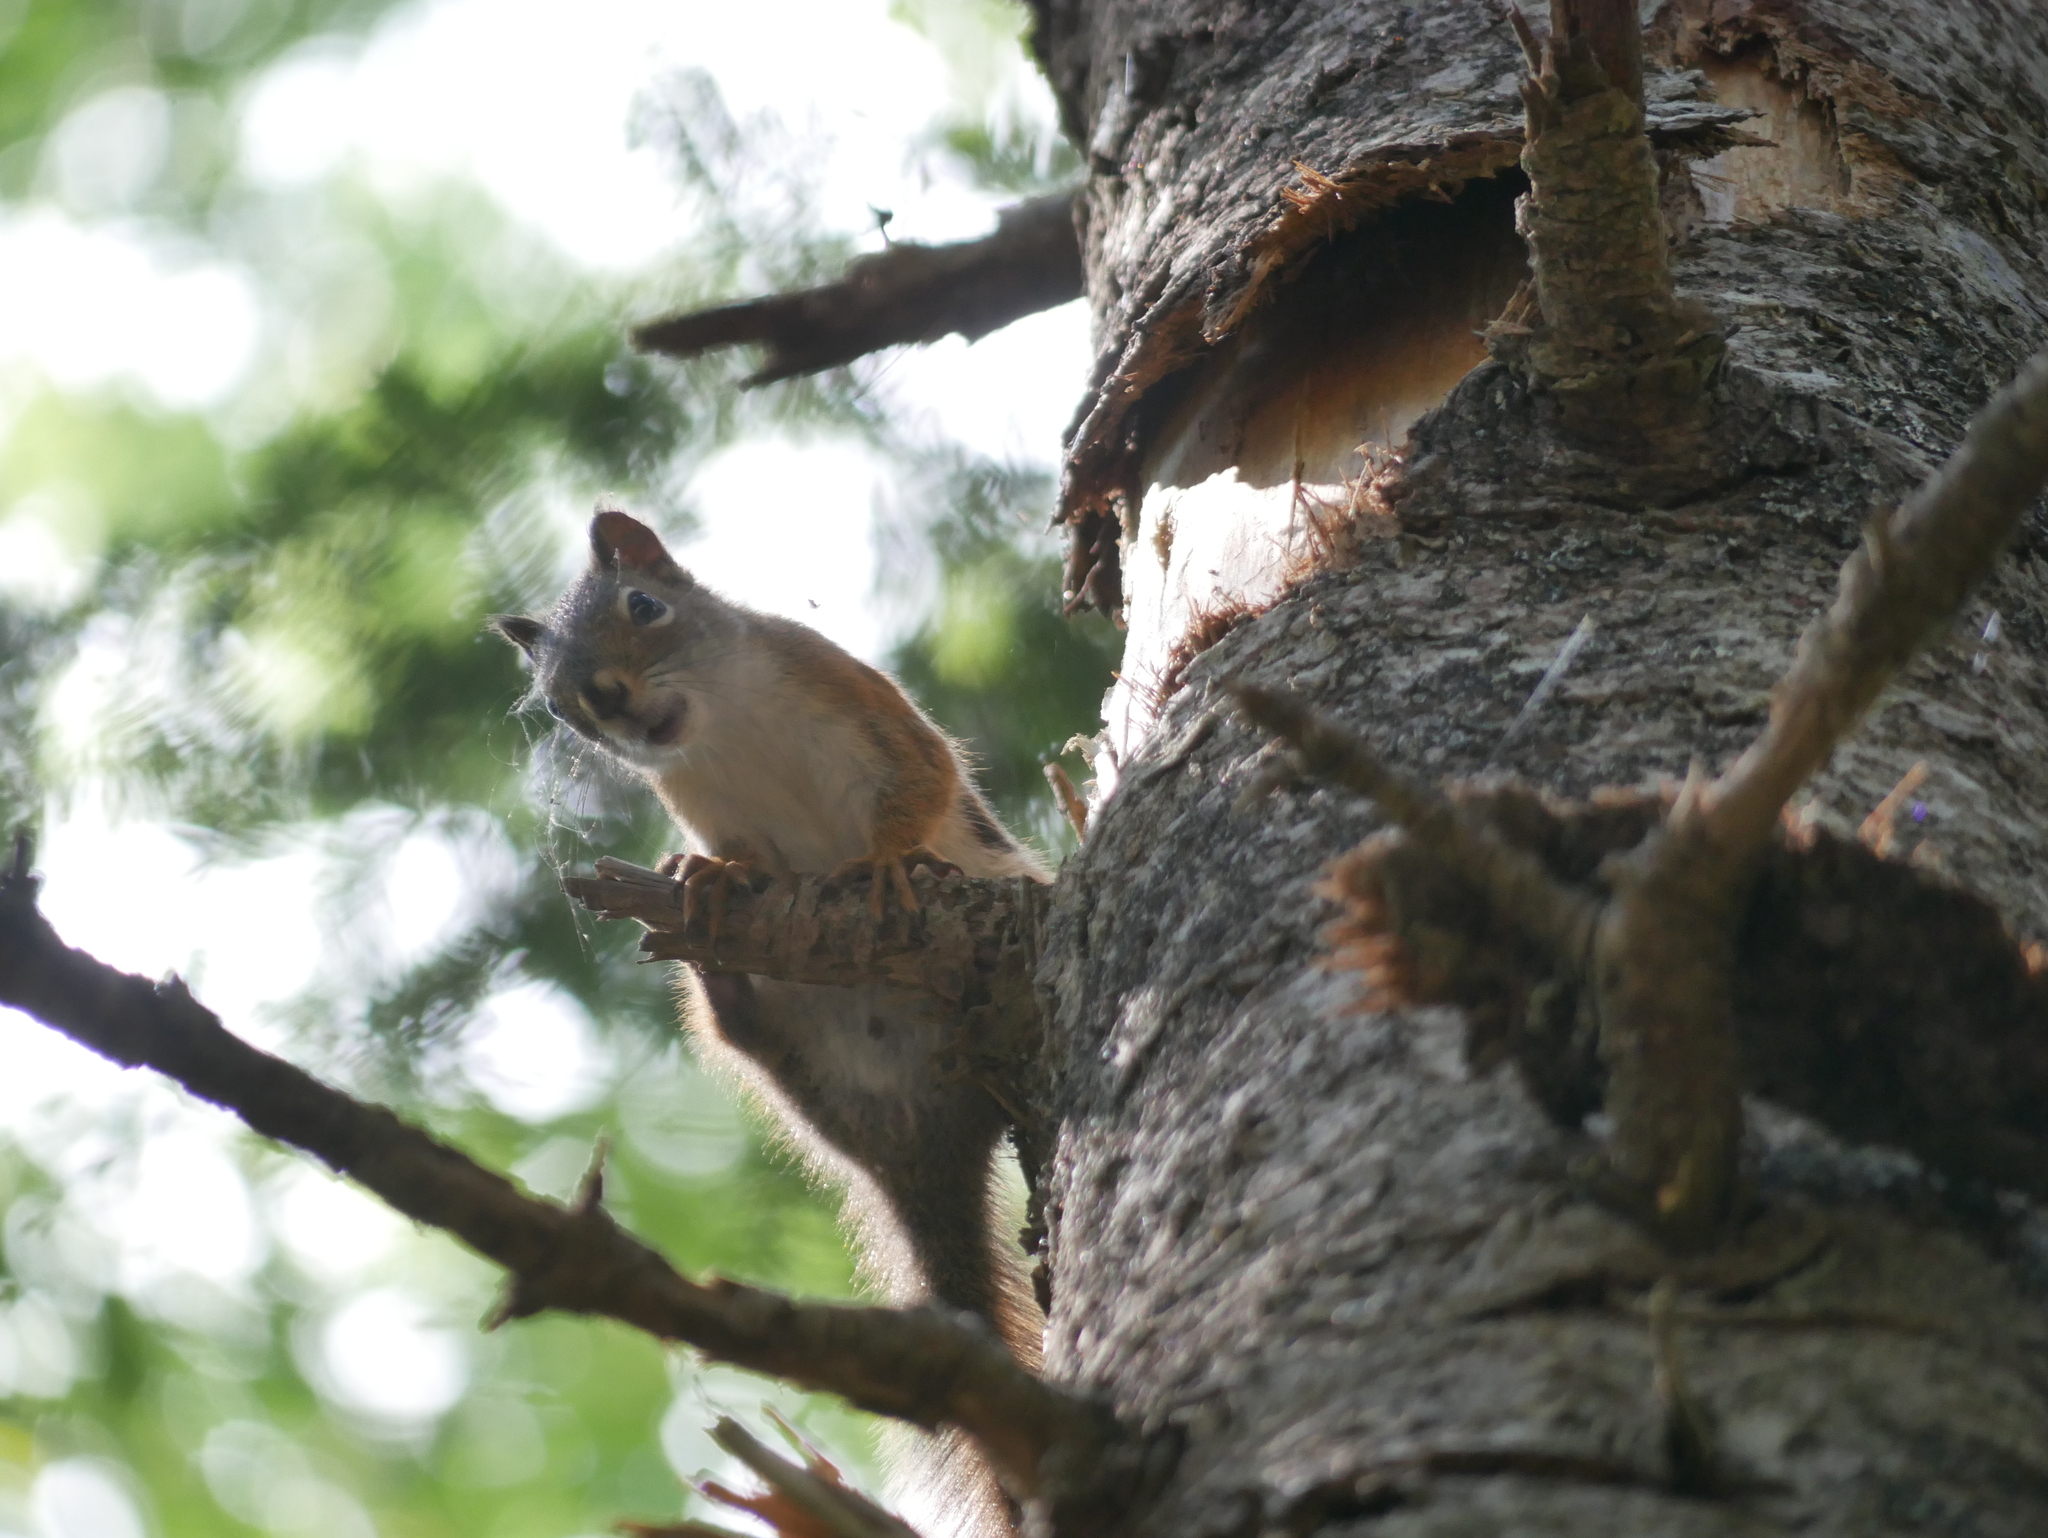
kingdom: Animalia
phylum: Chordata
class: Mammalia
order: Rodentia
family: Sciuridae
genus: Tamiasciurus
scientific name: Tamiasciurus hudsonicus
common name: Red squirrel
